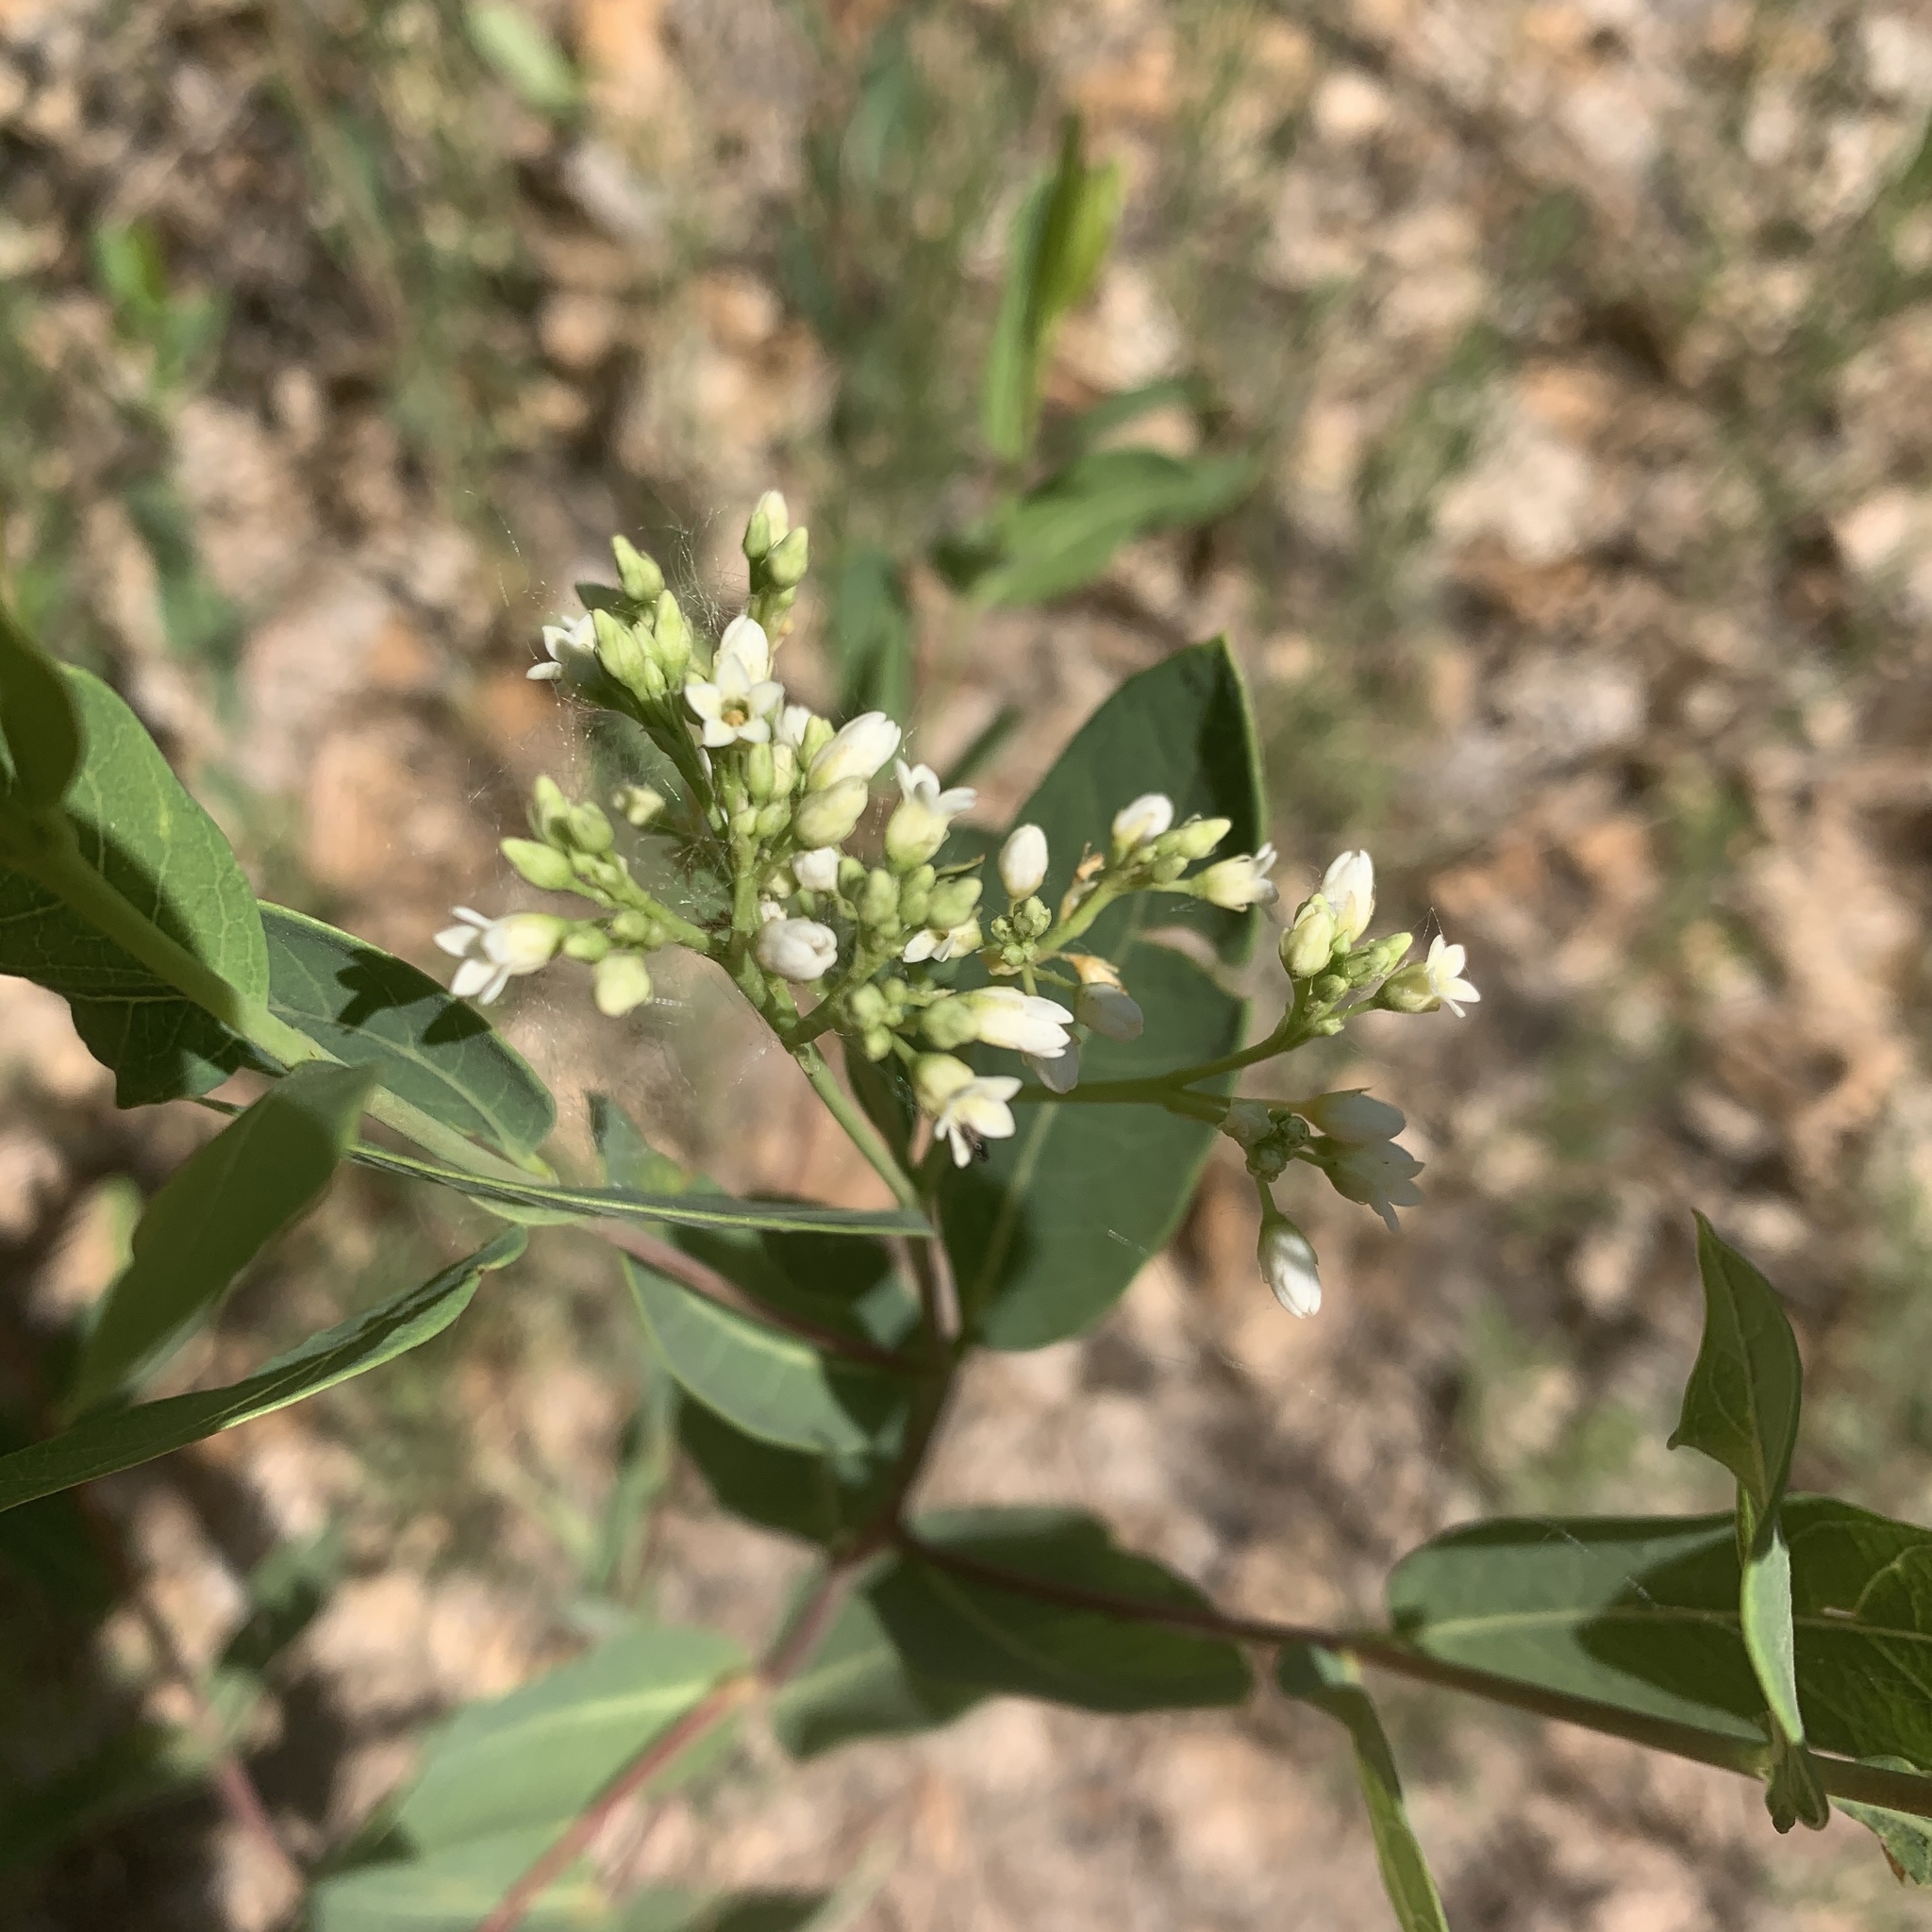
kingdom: Plantae
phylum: Tracheophyta
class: Magnoliopsida
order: Gentianales
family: Apocynaceae
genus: Apocynum
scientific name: Apocynum cannabinum
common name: Hemp dogbane
